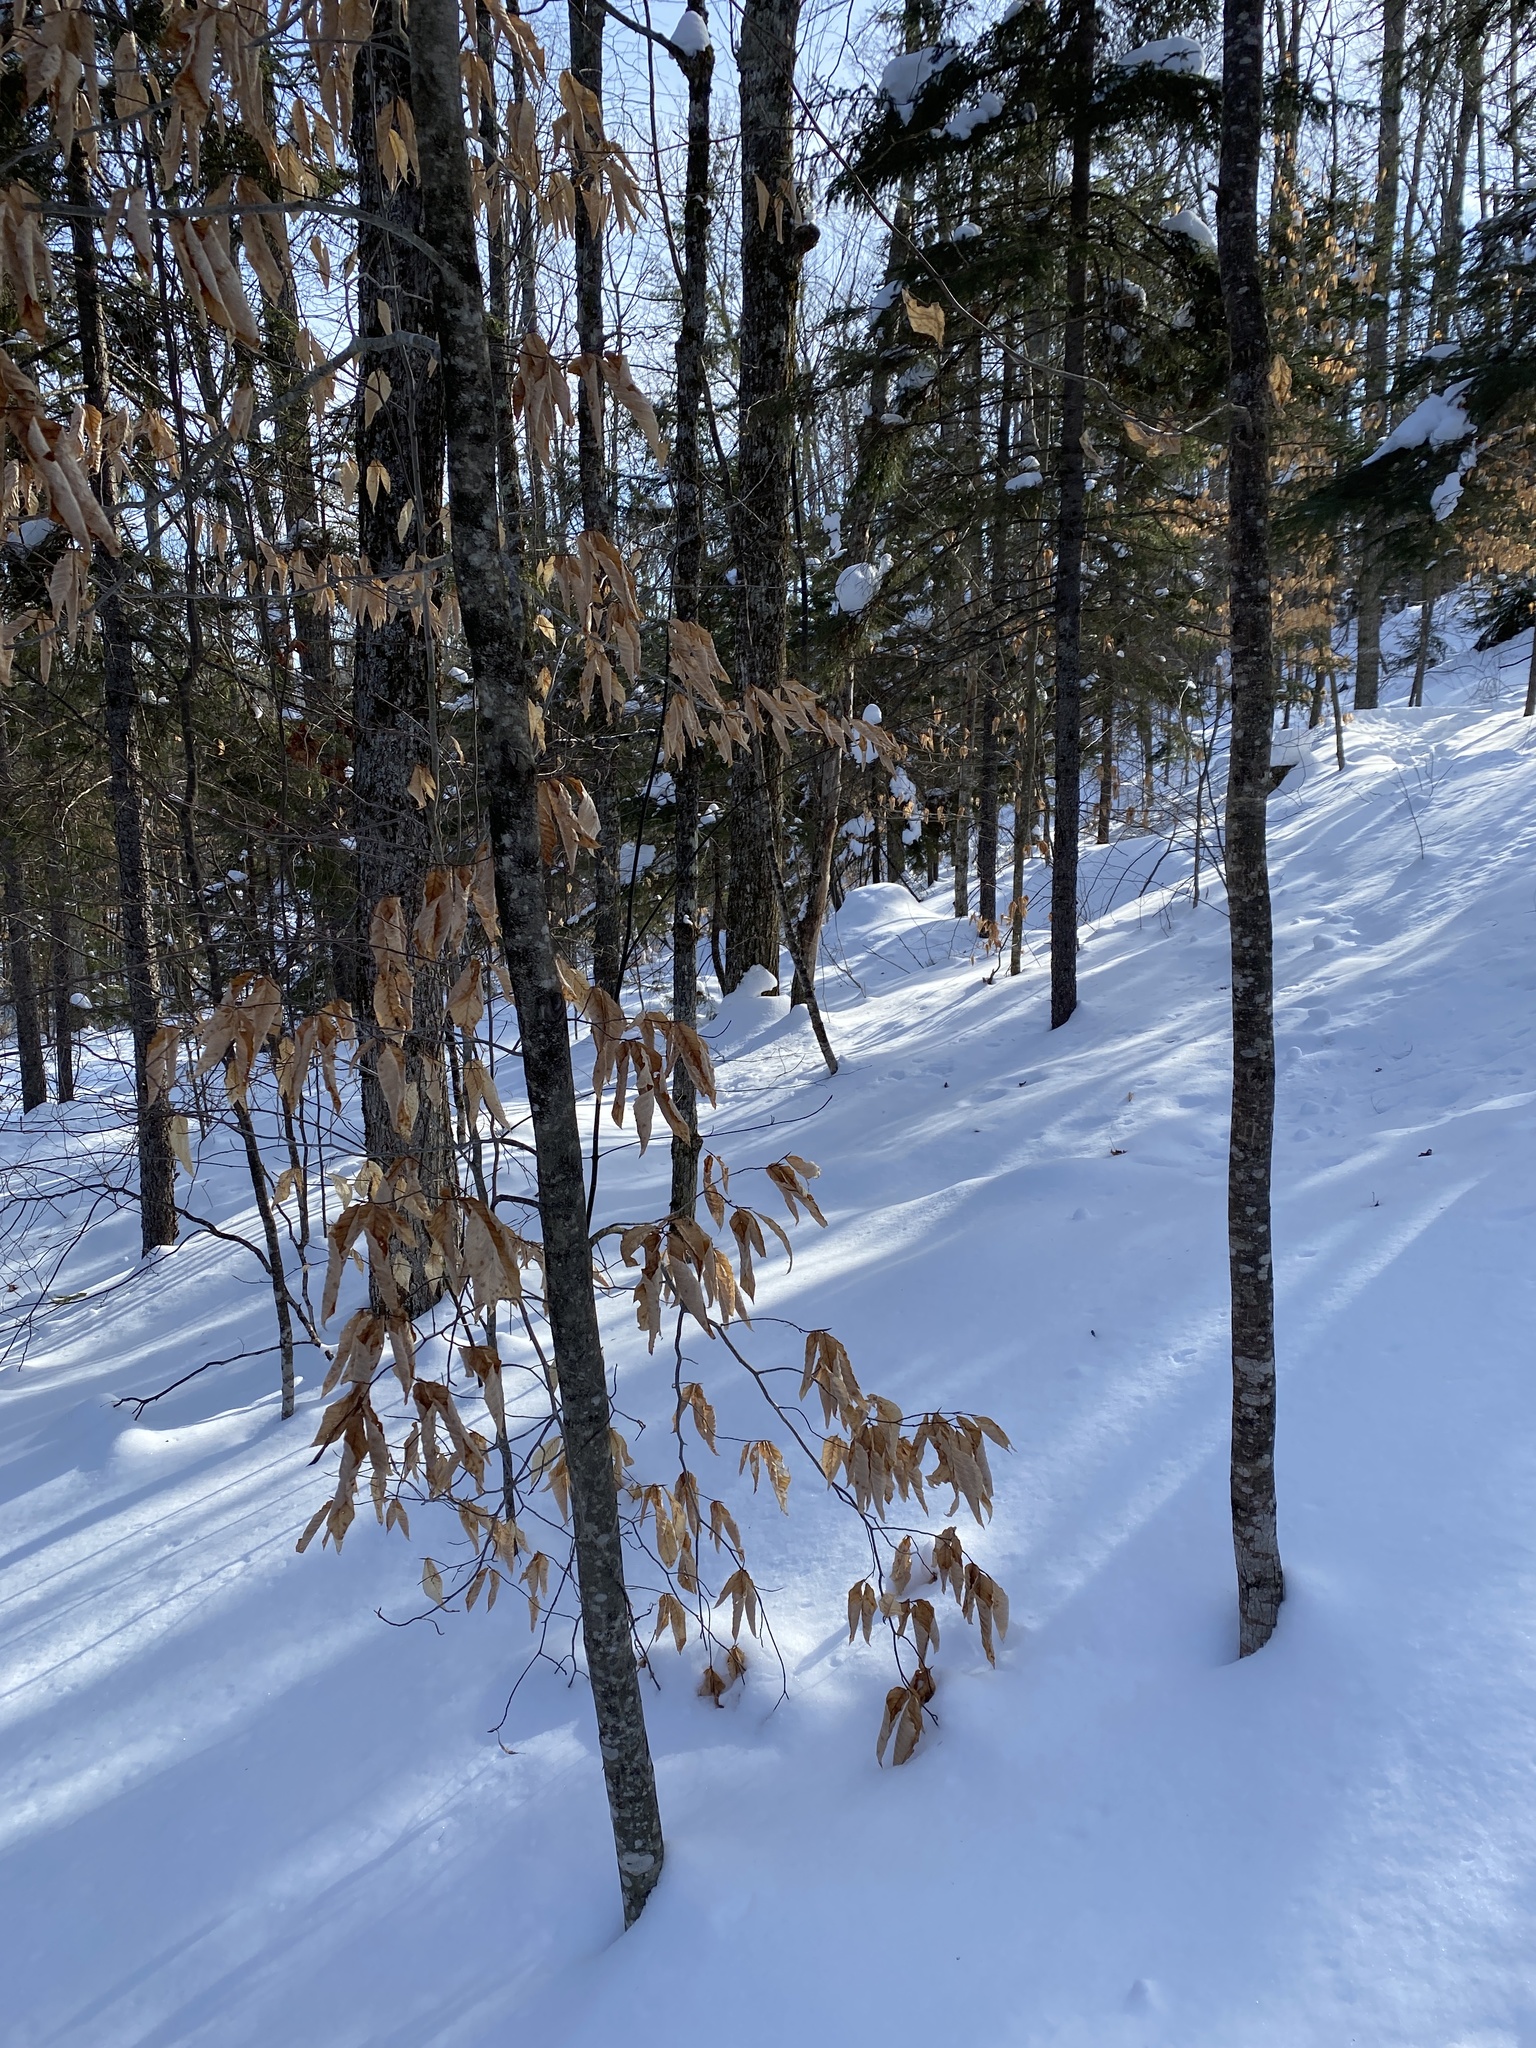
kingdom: Plantae
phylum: Tracheophyta
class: Magnoliopsida
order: Fagales
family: Fagaceae
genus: Fagus
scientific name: Fagus grandifolia
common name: American beech
